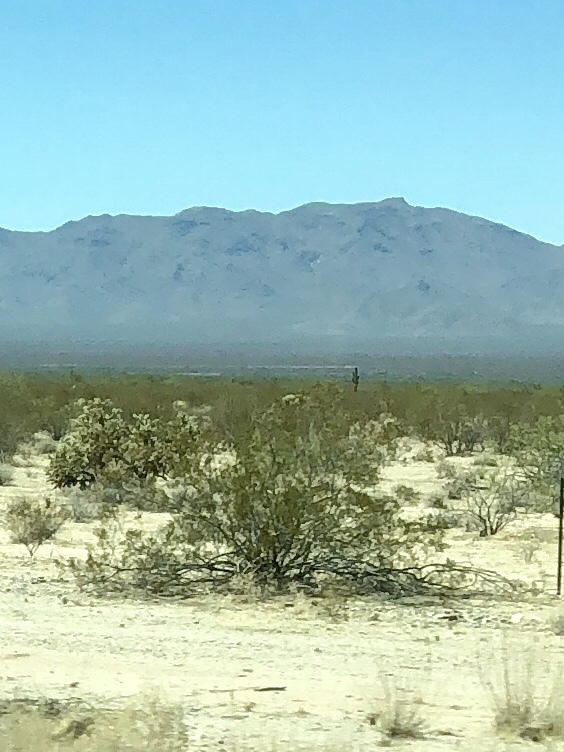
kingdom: Plantae
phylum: Tracheophyta
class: Magnoliopsida
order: Zygophyllales
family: Zygophyllaceae
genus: Larrea
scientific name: Larrea tridentata
